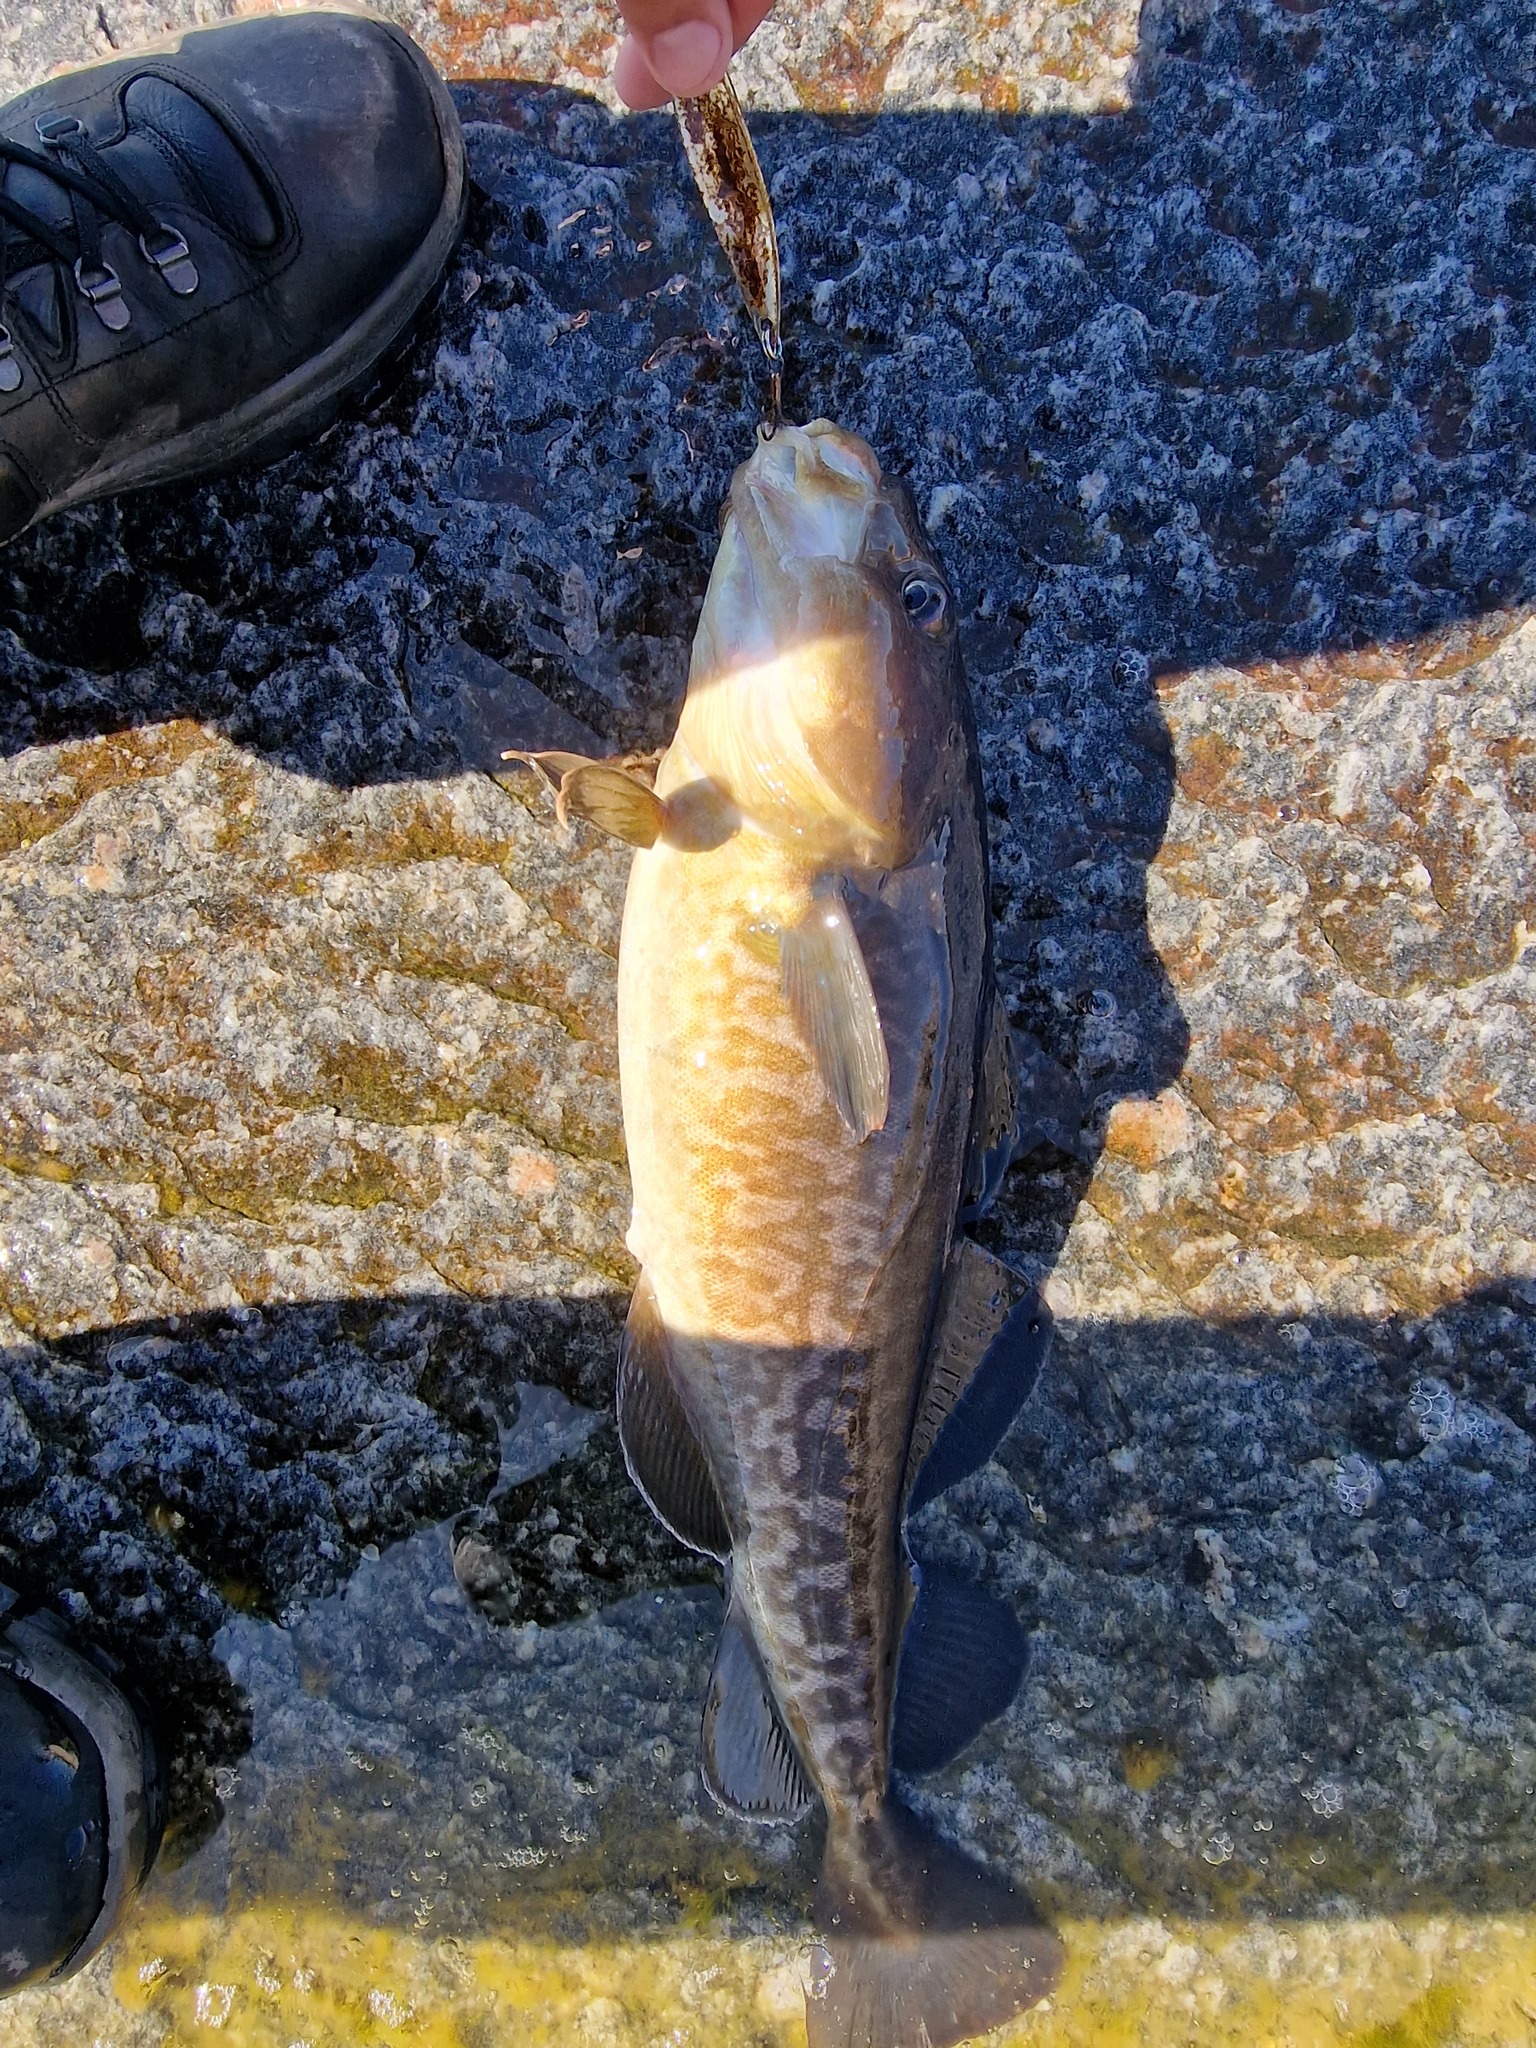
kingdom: Animalia
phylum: Chordata
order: Gadiformes
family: Gadidae
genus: Gadus
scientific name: Gadus macrocephalus
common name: Pacific cod
